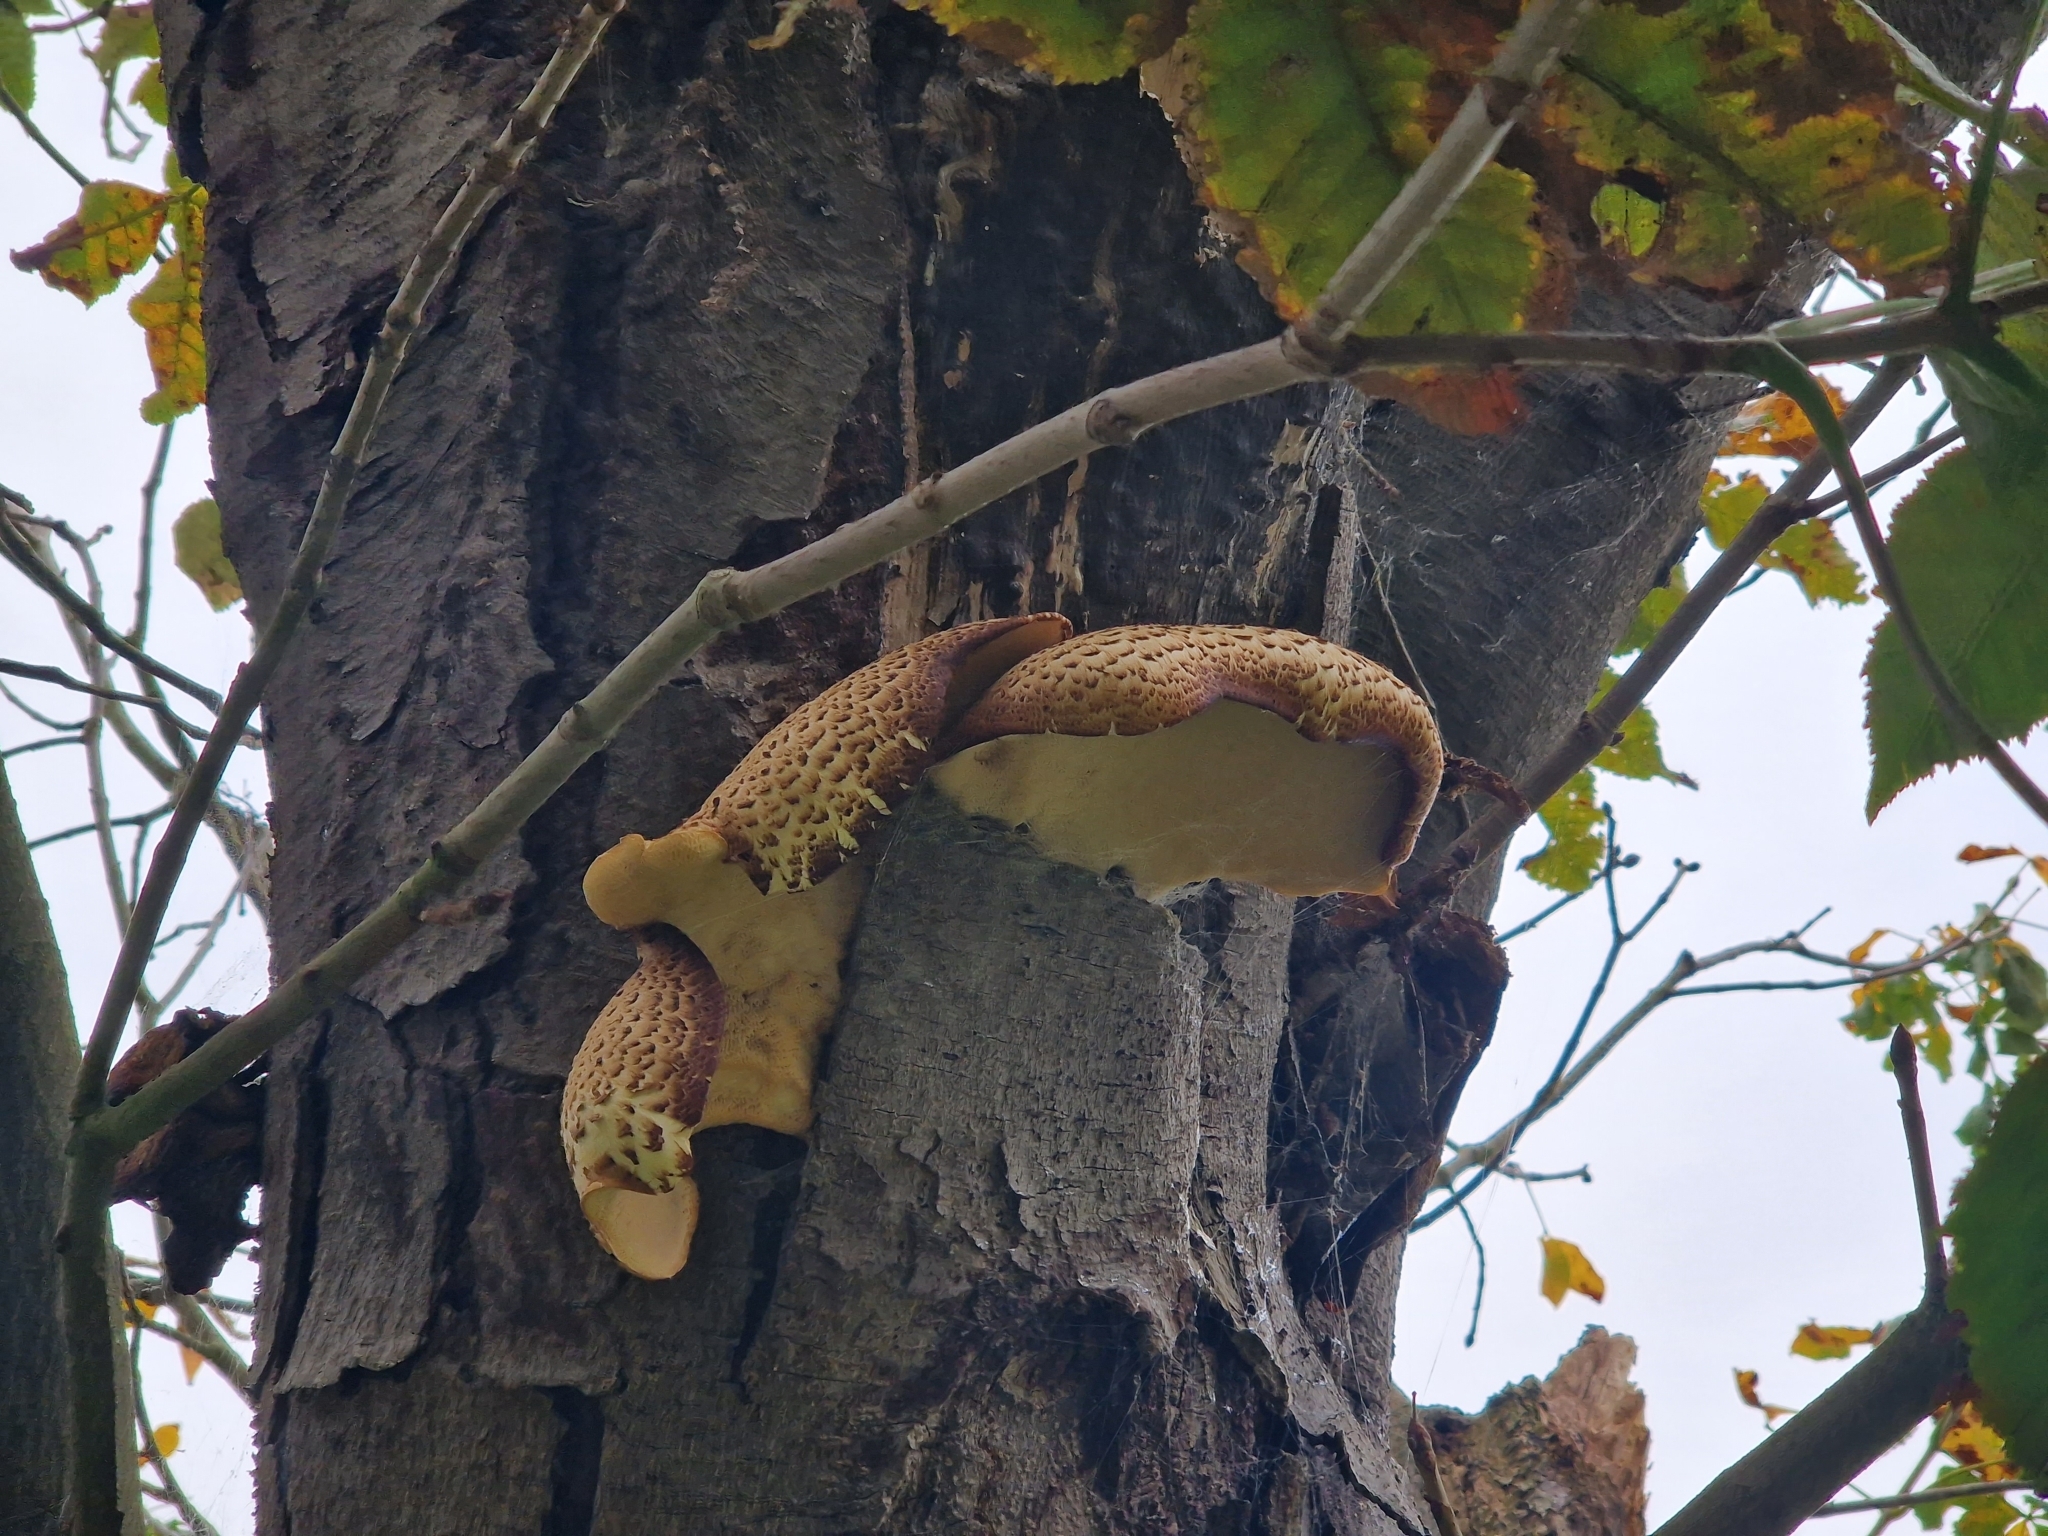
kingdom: Fungi
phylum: Basidiomycota
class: Agaricomycetes
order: Polyporales
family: Polyporaceae
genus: Cerioporus
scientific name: Cerioporus squamosus
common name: Dryad's saddle
